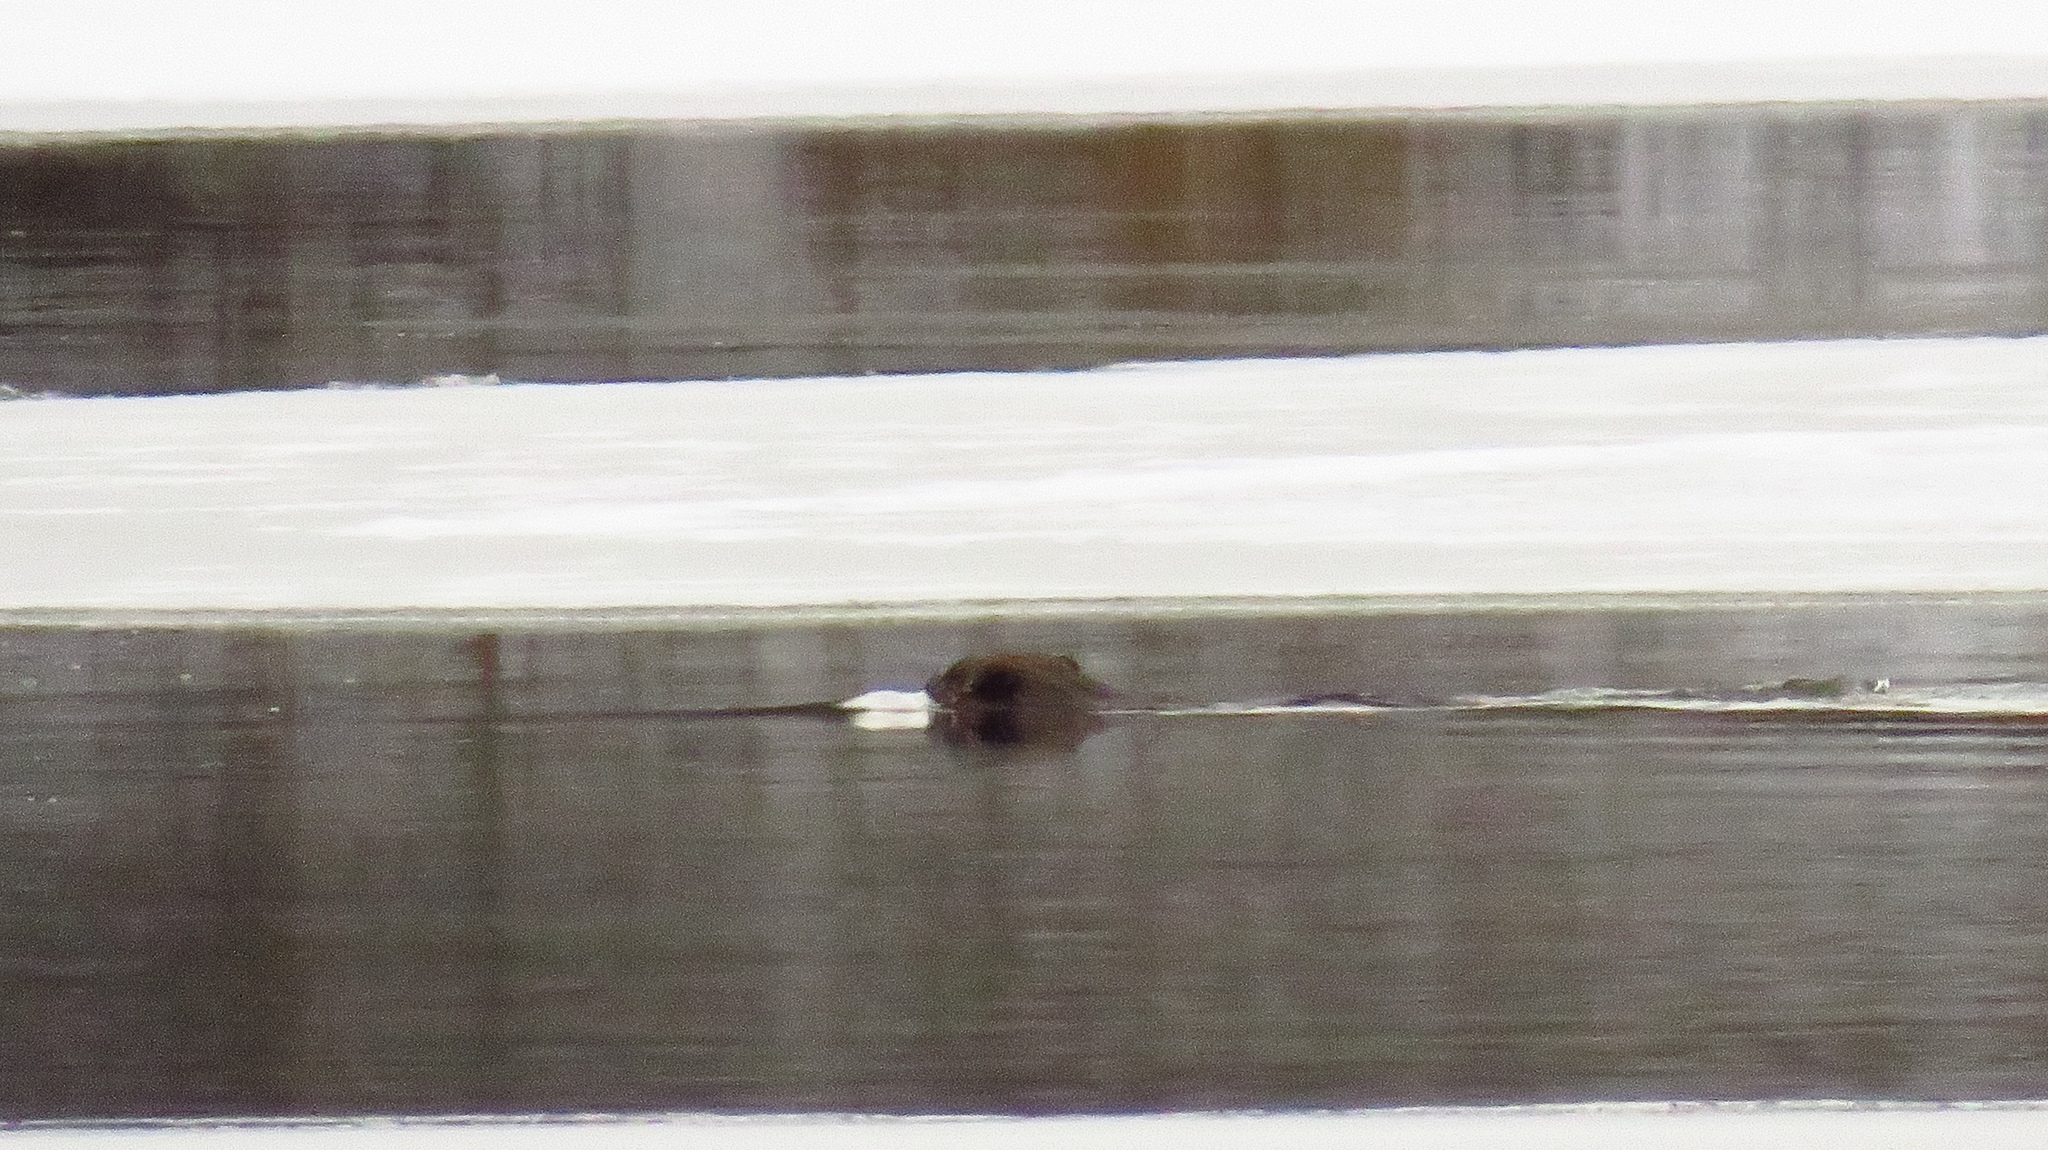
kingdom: Animalia
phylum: Chordata
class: Mammalia
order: Rodentia
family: Castoridae
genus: Castor
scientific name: Castor fiber
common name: Eurasian beaver
